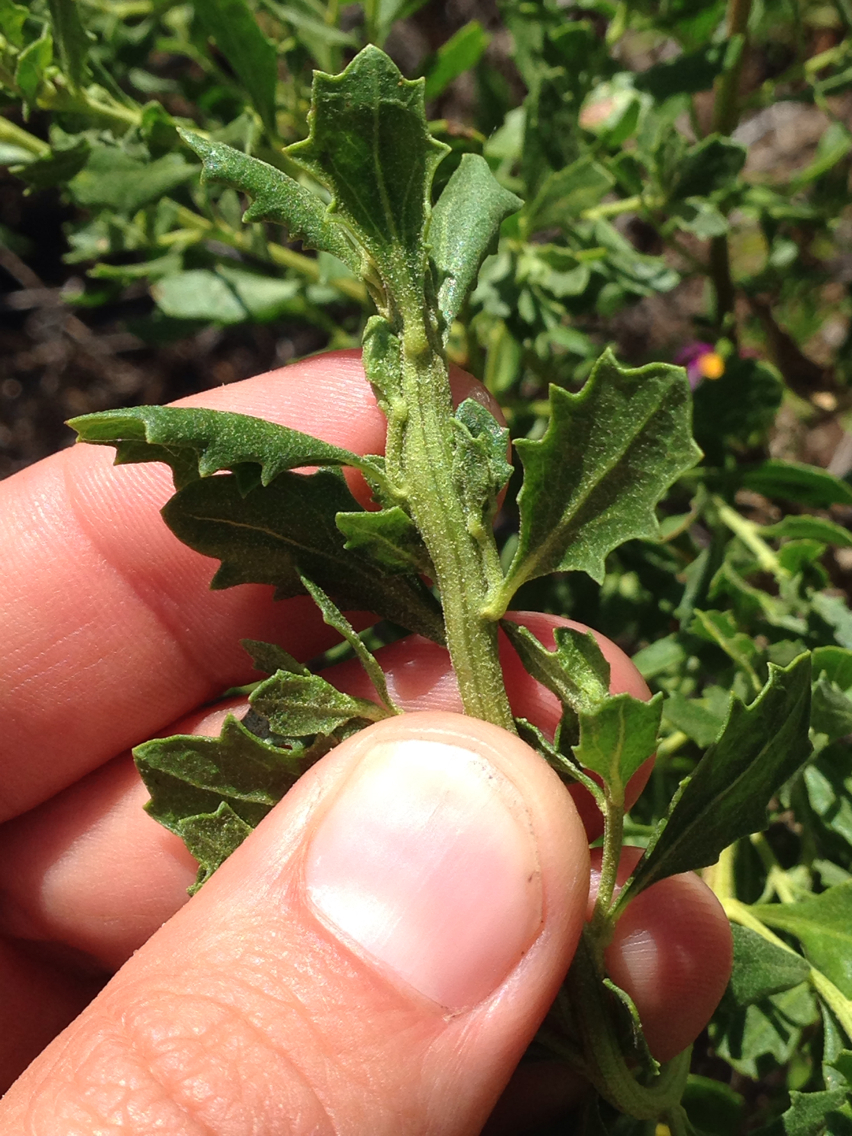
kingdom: Animalia
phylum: Arthropoda
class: Insecta
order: Diptera
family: Cecidomyiidae
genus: Rhopalomyia
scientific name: Rhopalomyia baccharis
